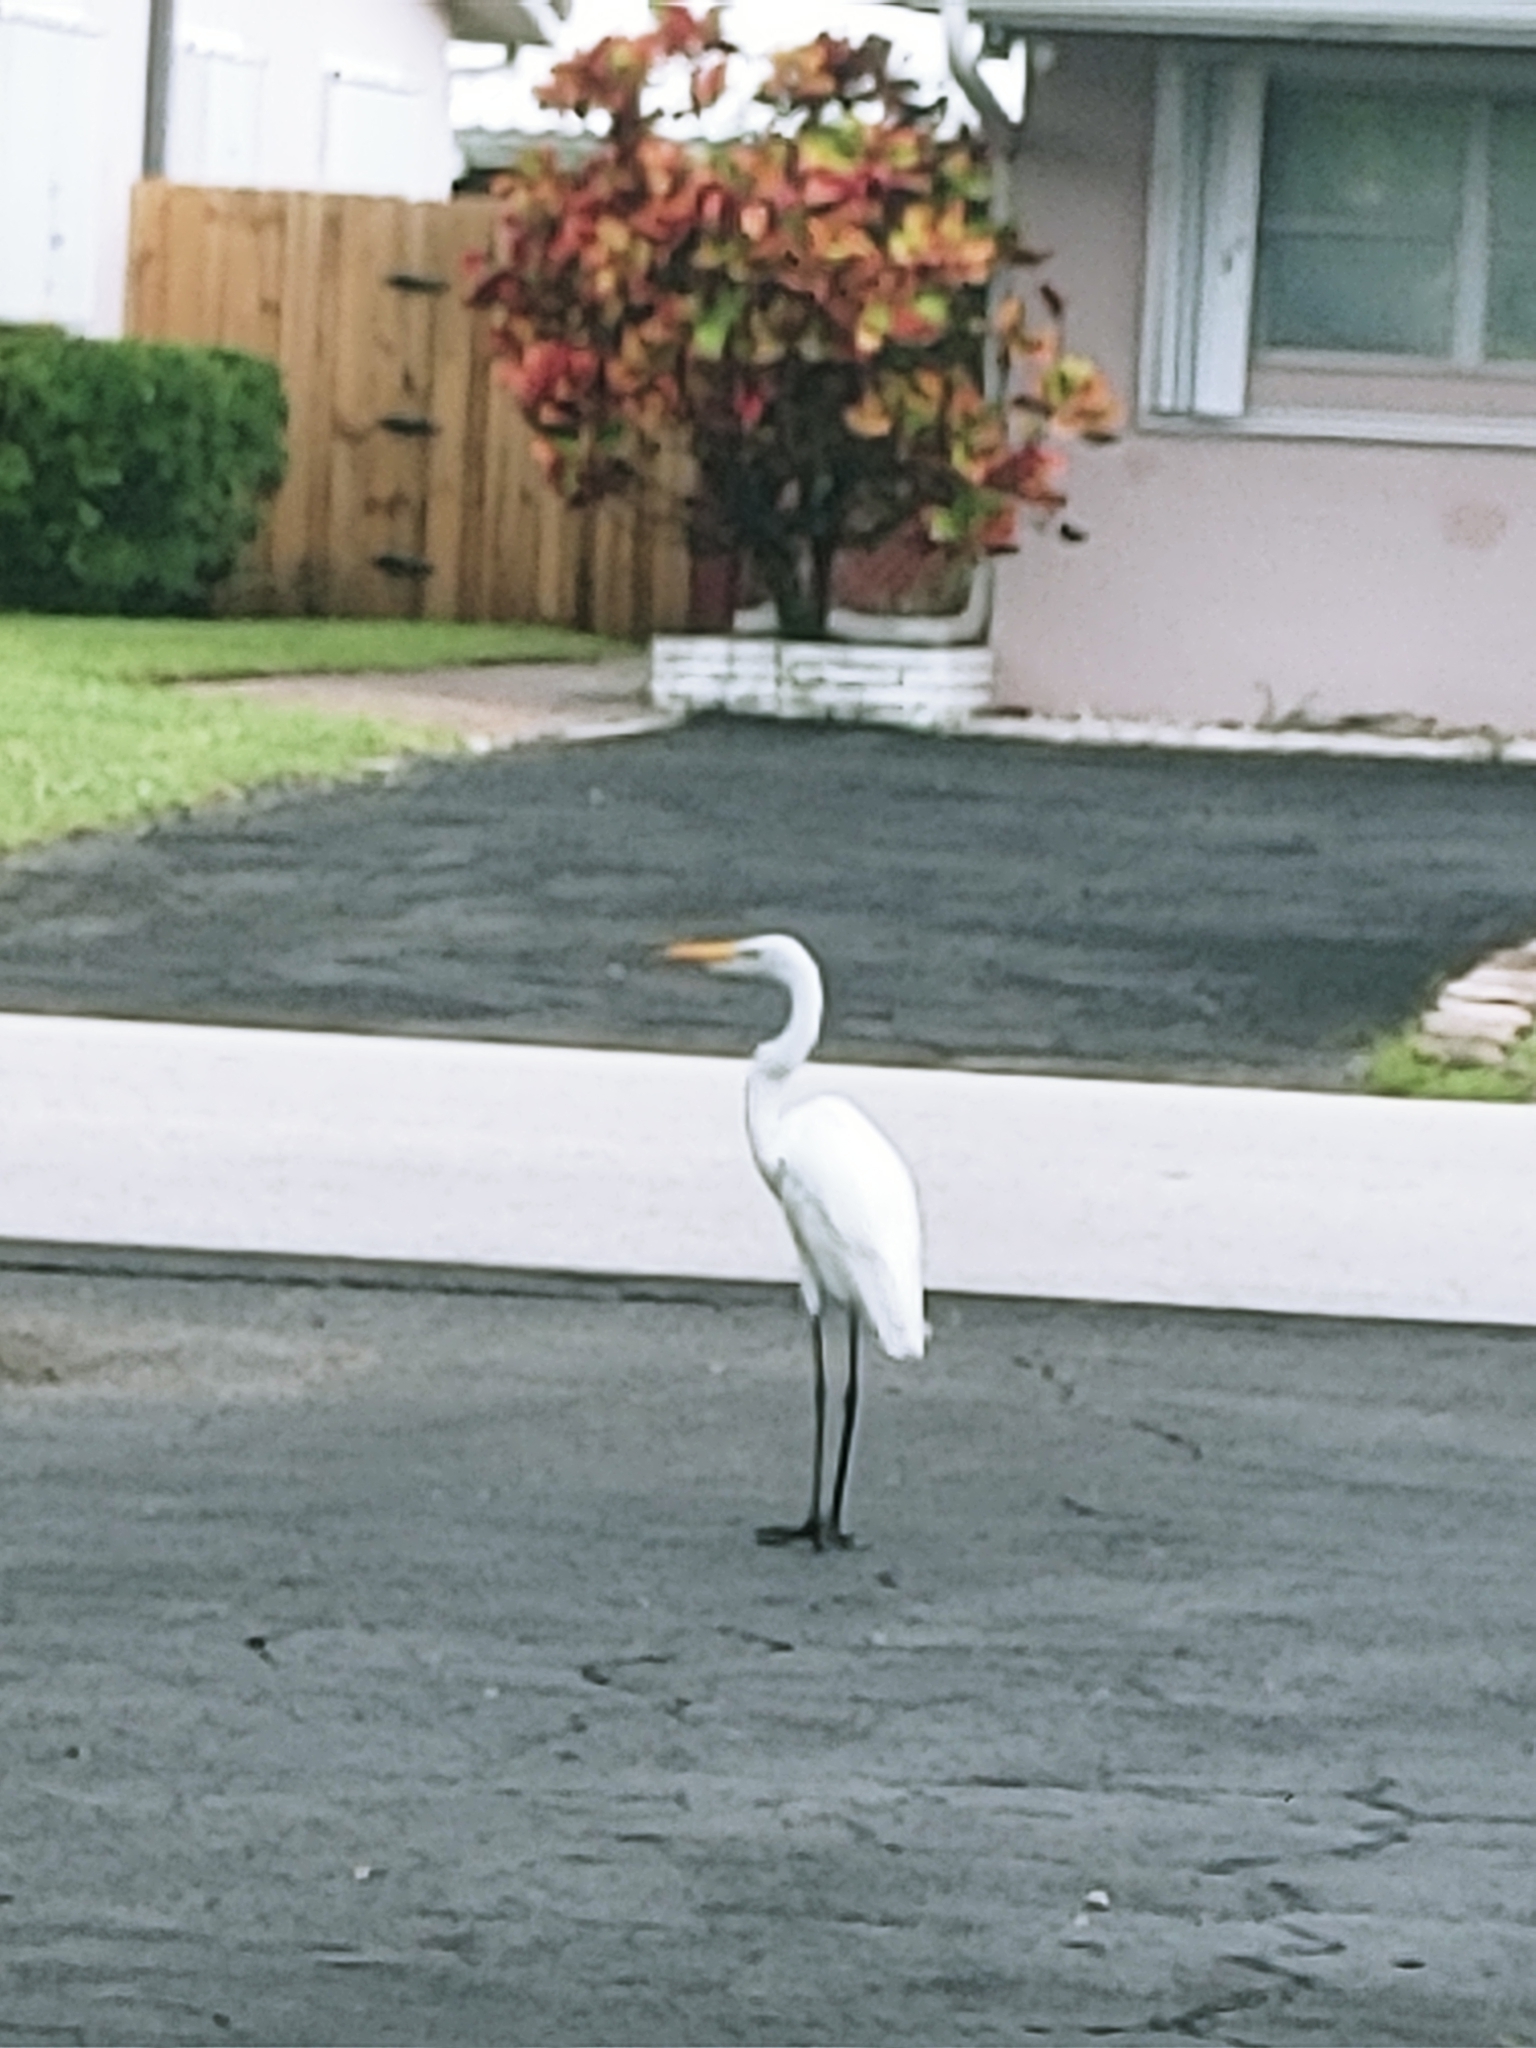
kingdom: Animalia
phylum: Chordata
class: Aves
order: Pelecaniformes
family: Ardeidae
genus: Ardea
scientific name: Ardea alba
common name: Great egret
